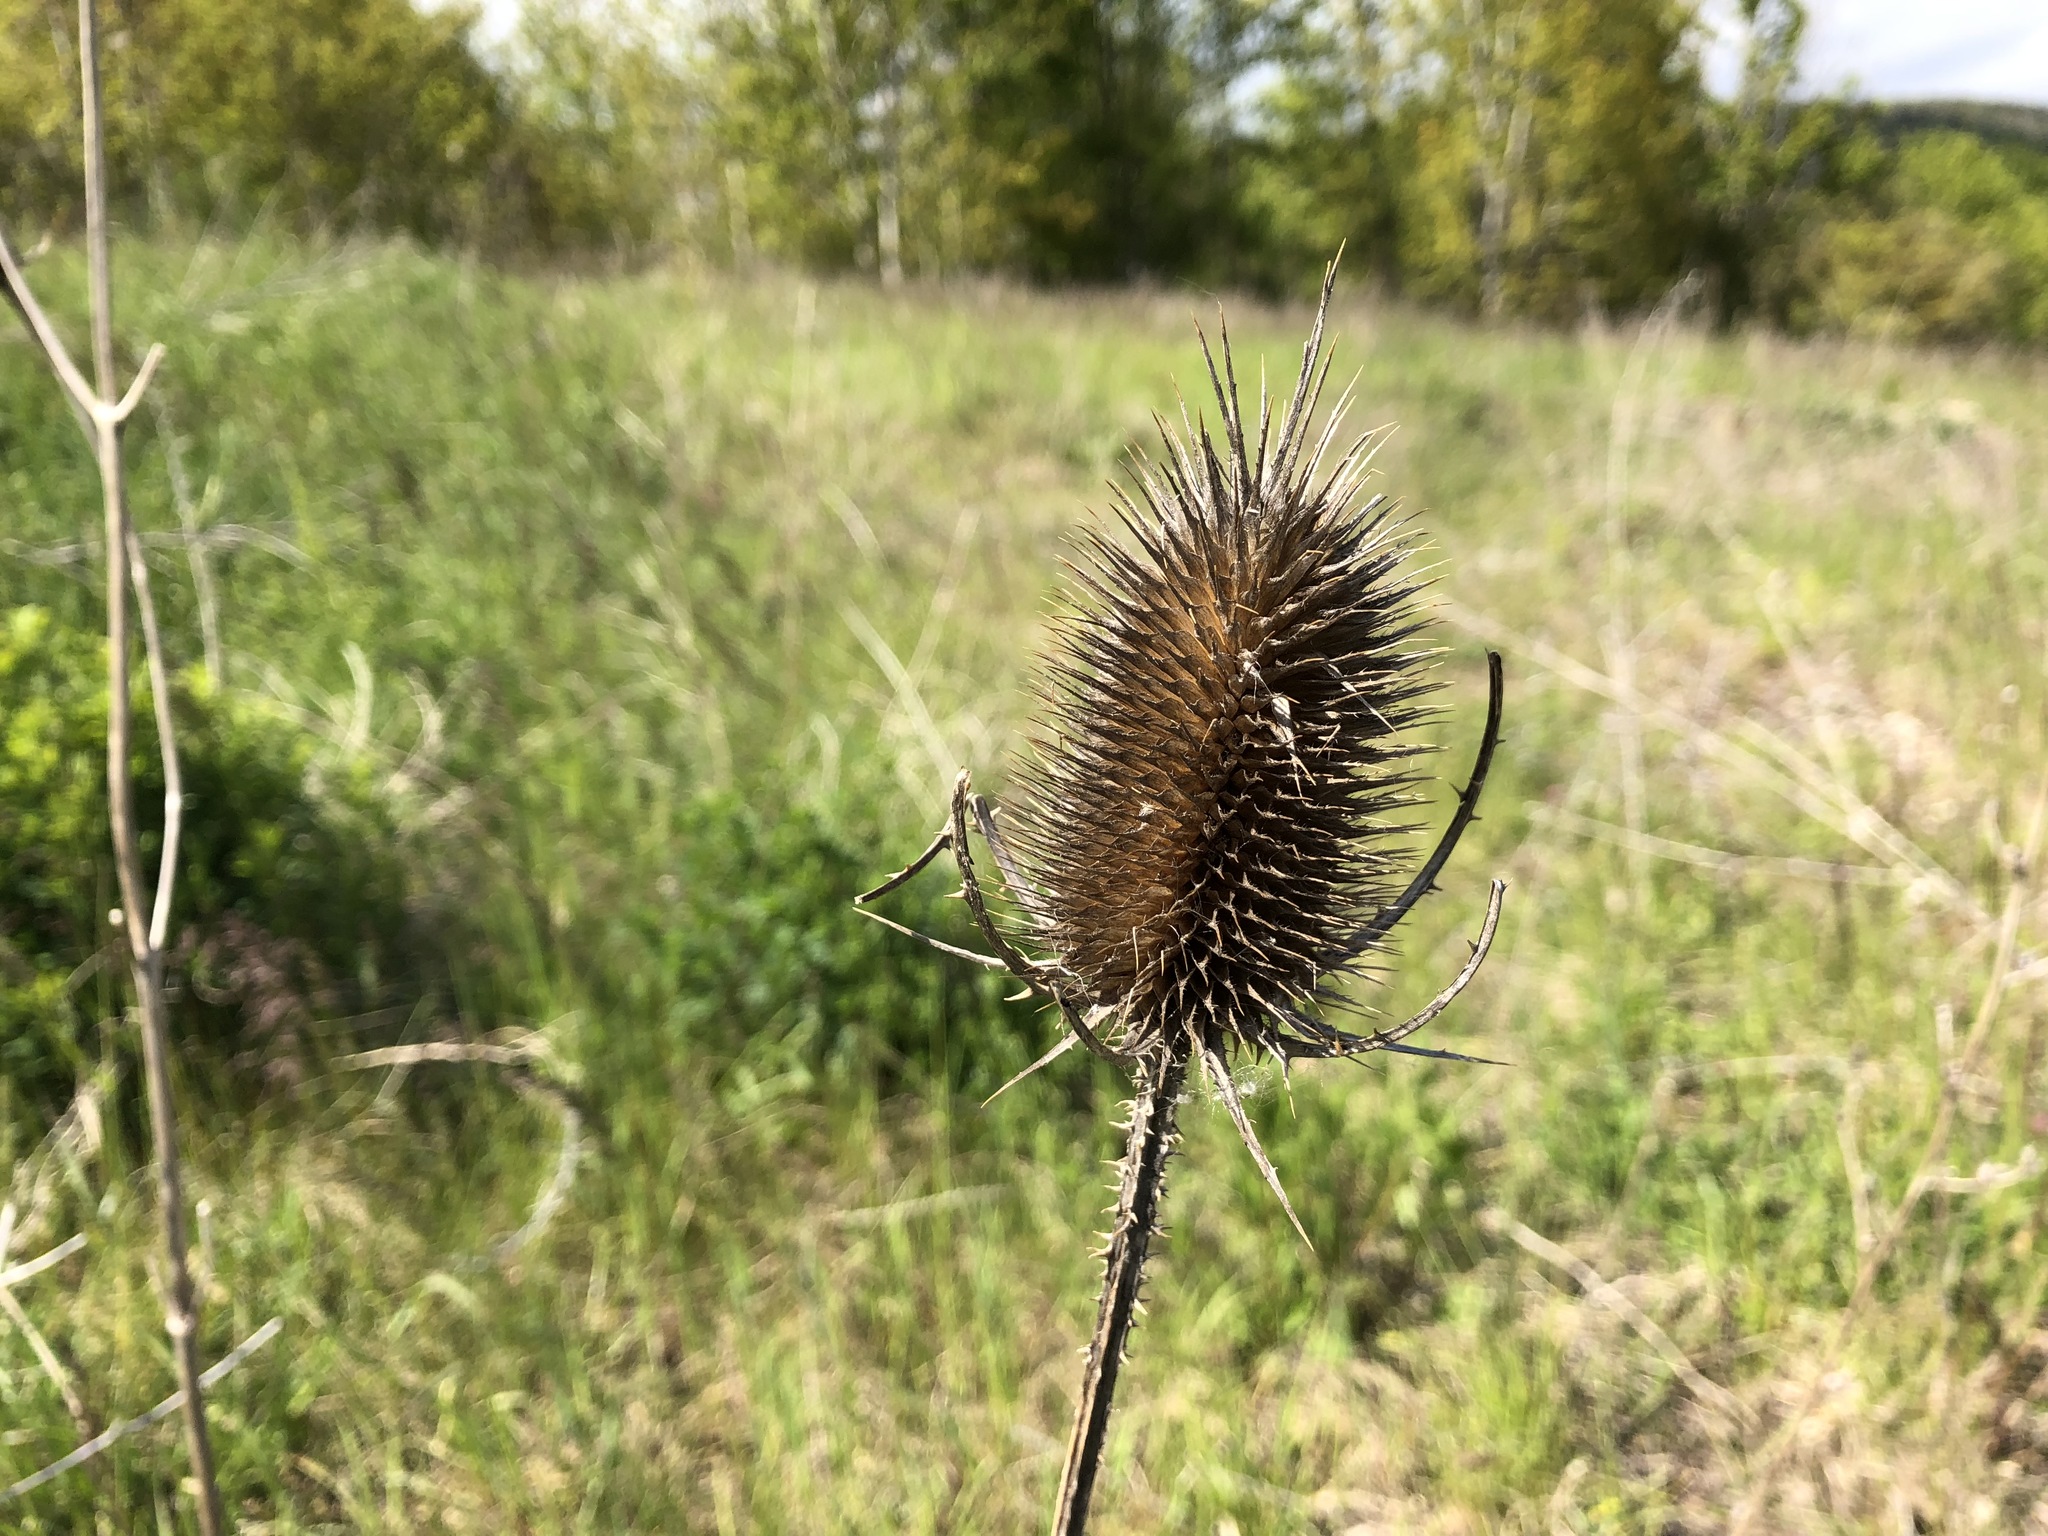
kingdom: Plantae
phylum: Tracheophyta
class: Magnoliopsida
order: Dipsacales
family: Caprifoliaceae
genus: Dipsacus
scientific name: Dipsacus fullonum
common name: Teasel
